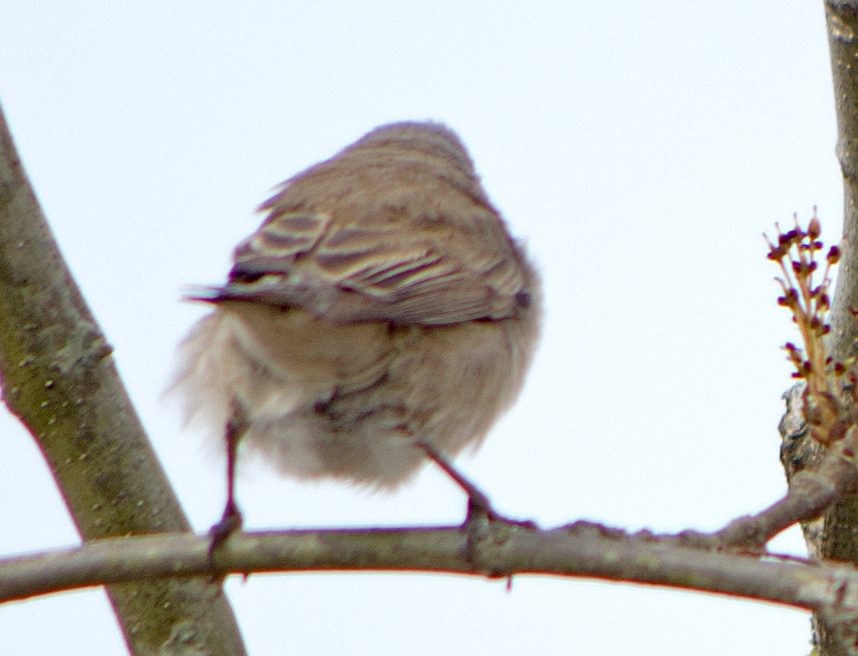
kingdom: Animalia
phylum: Chordata
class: Aves
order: Passeriformes
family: Sylviidae
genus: Sylvia
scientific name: Sylvia curruca
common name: Lesser whitethroat
